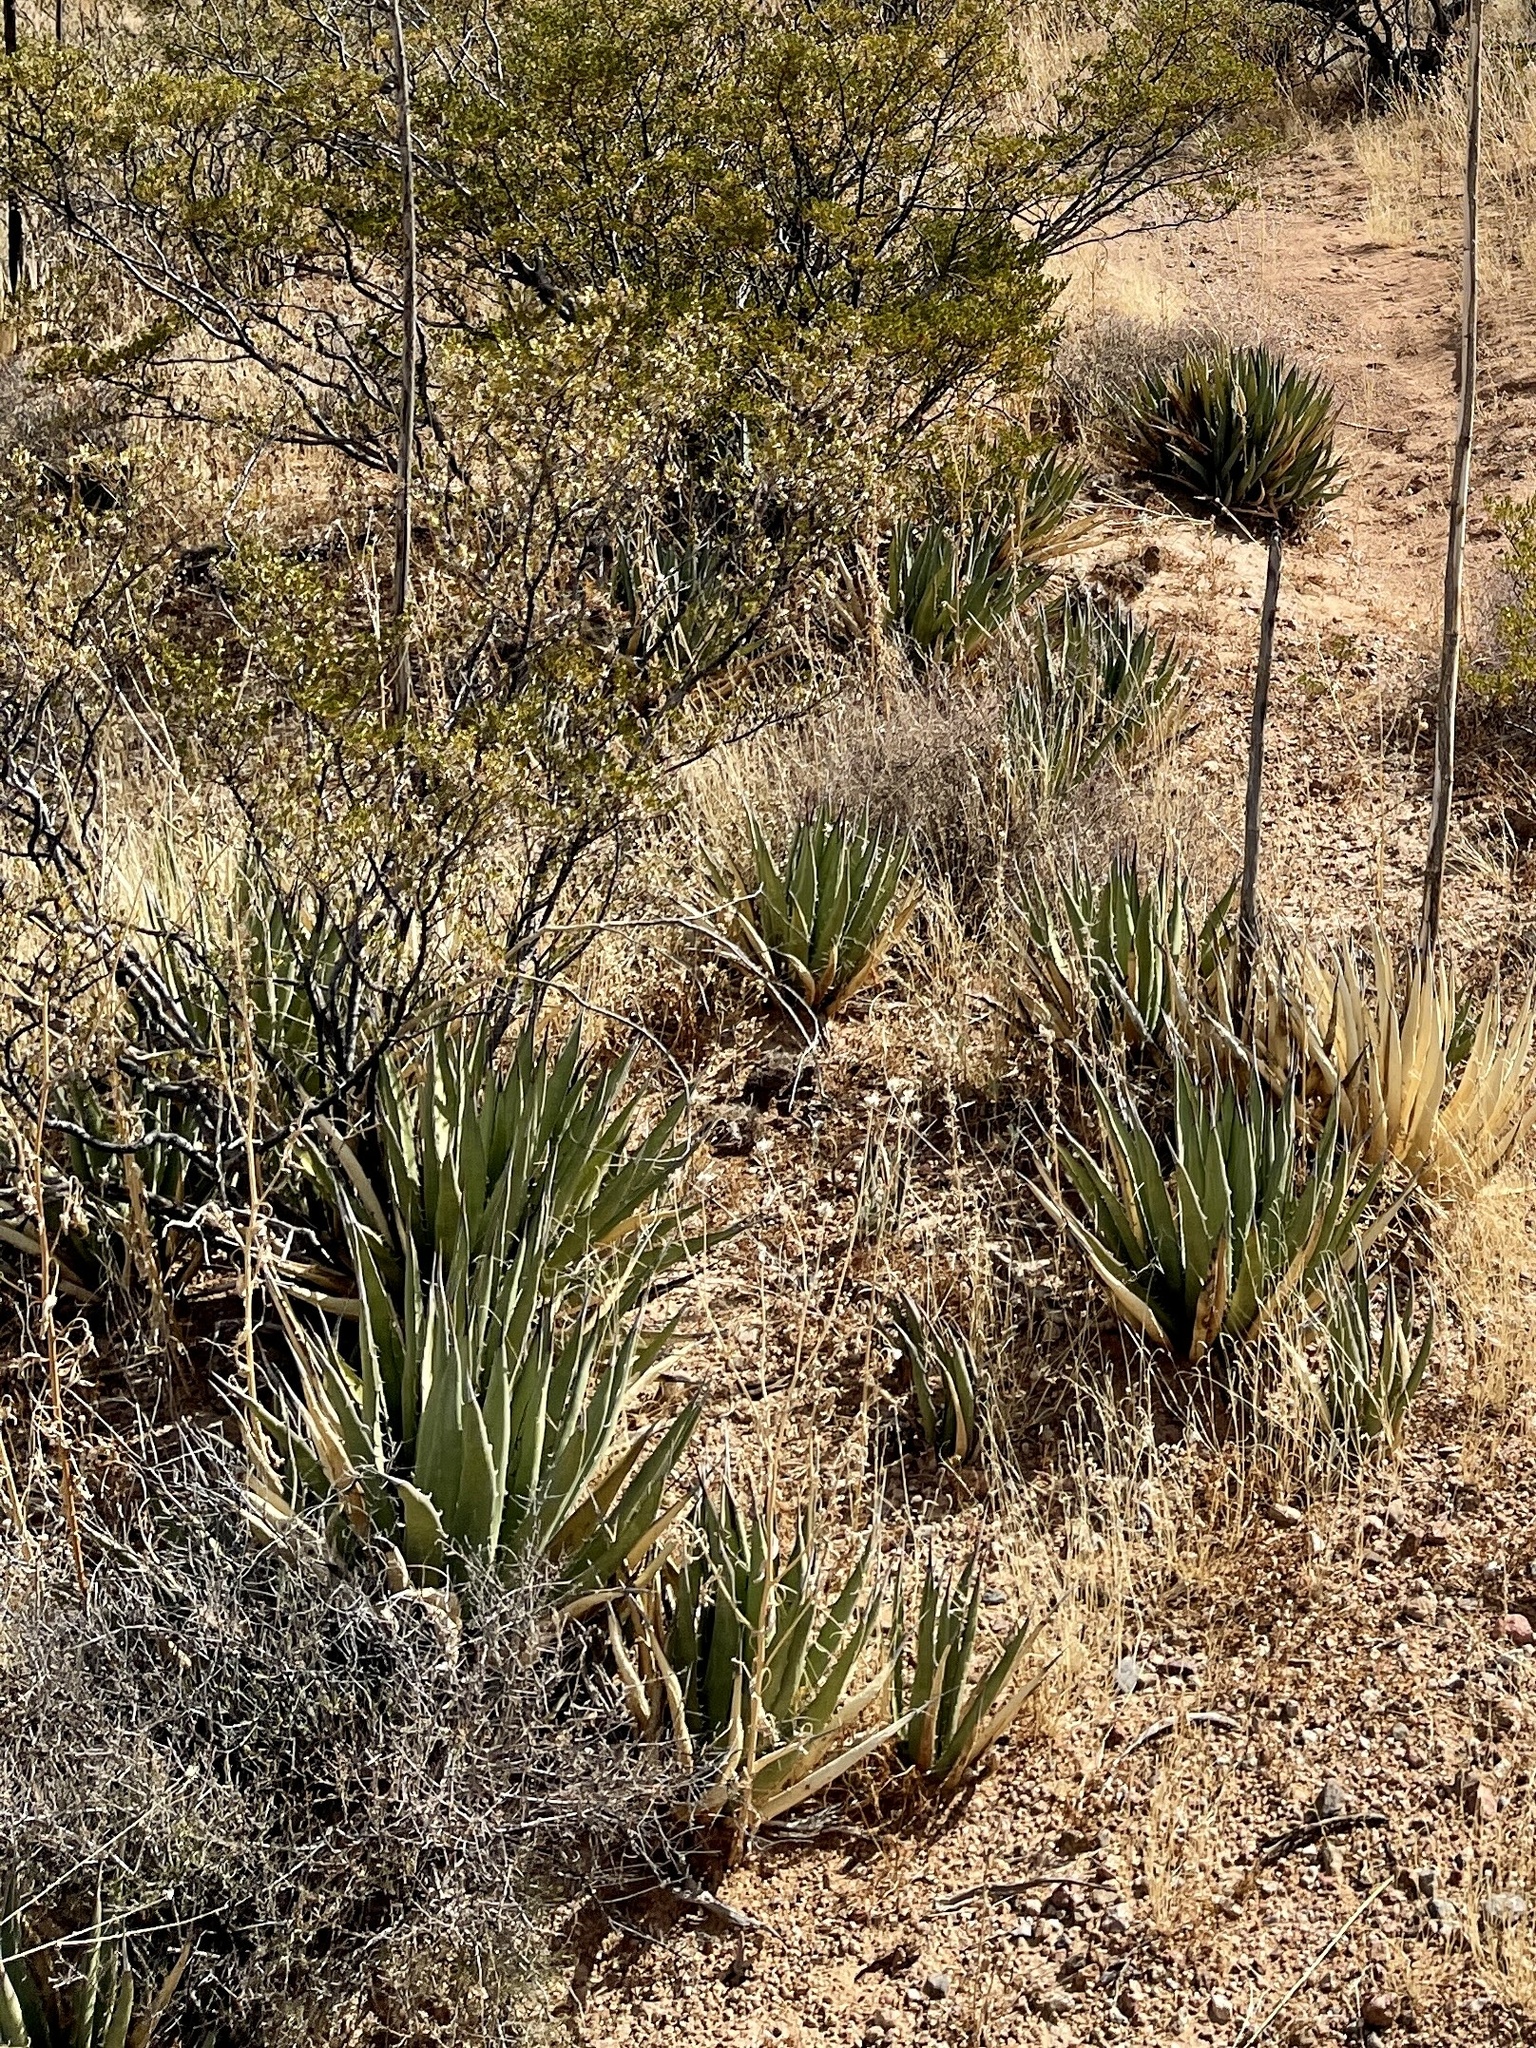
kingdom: Plantae
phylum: Tracheophyta
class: Liliopsida
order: Asparagales
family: Asparagaceae
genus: Agave
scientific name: Agave lechuguilla
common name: Lecheguilla agave
